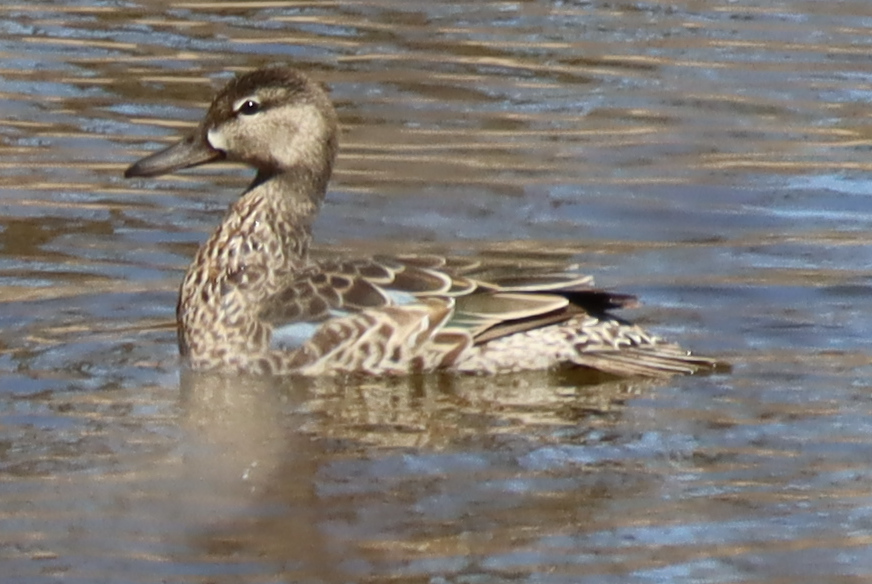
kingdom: Animalia
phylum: Chordata
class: Aves
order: Anseriformes
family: Anatidae
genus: Spatula
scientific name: Spatula discors
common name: Blue-winged teal
